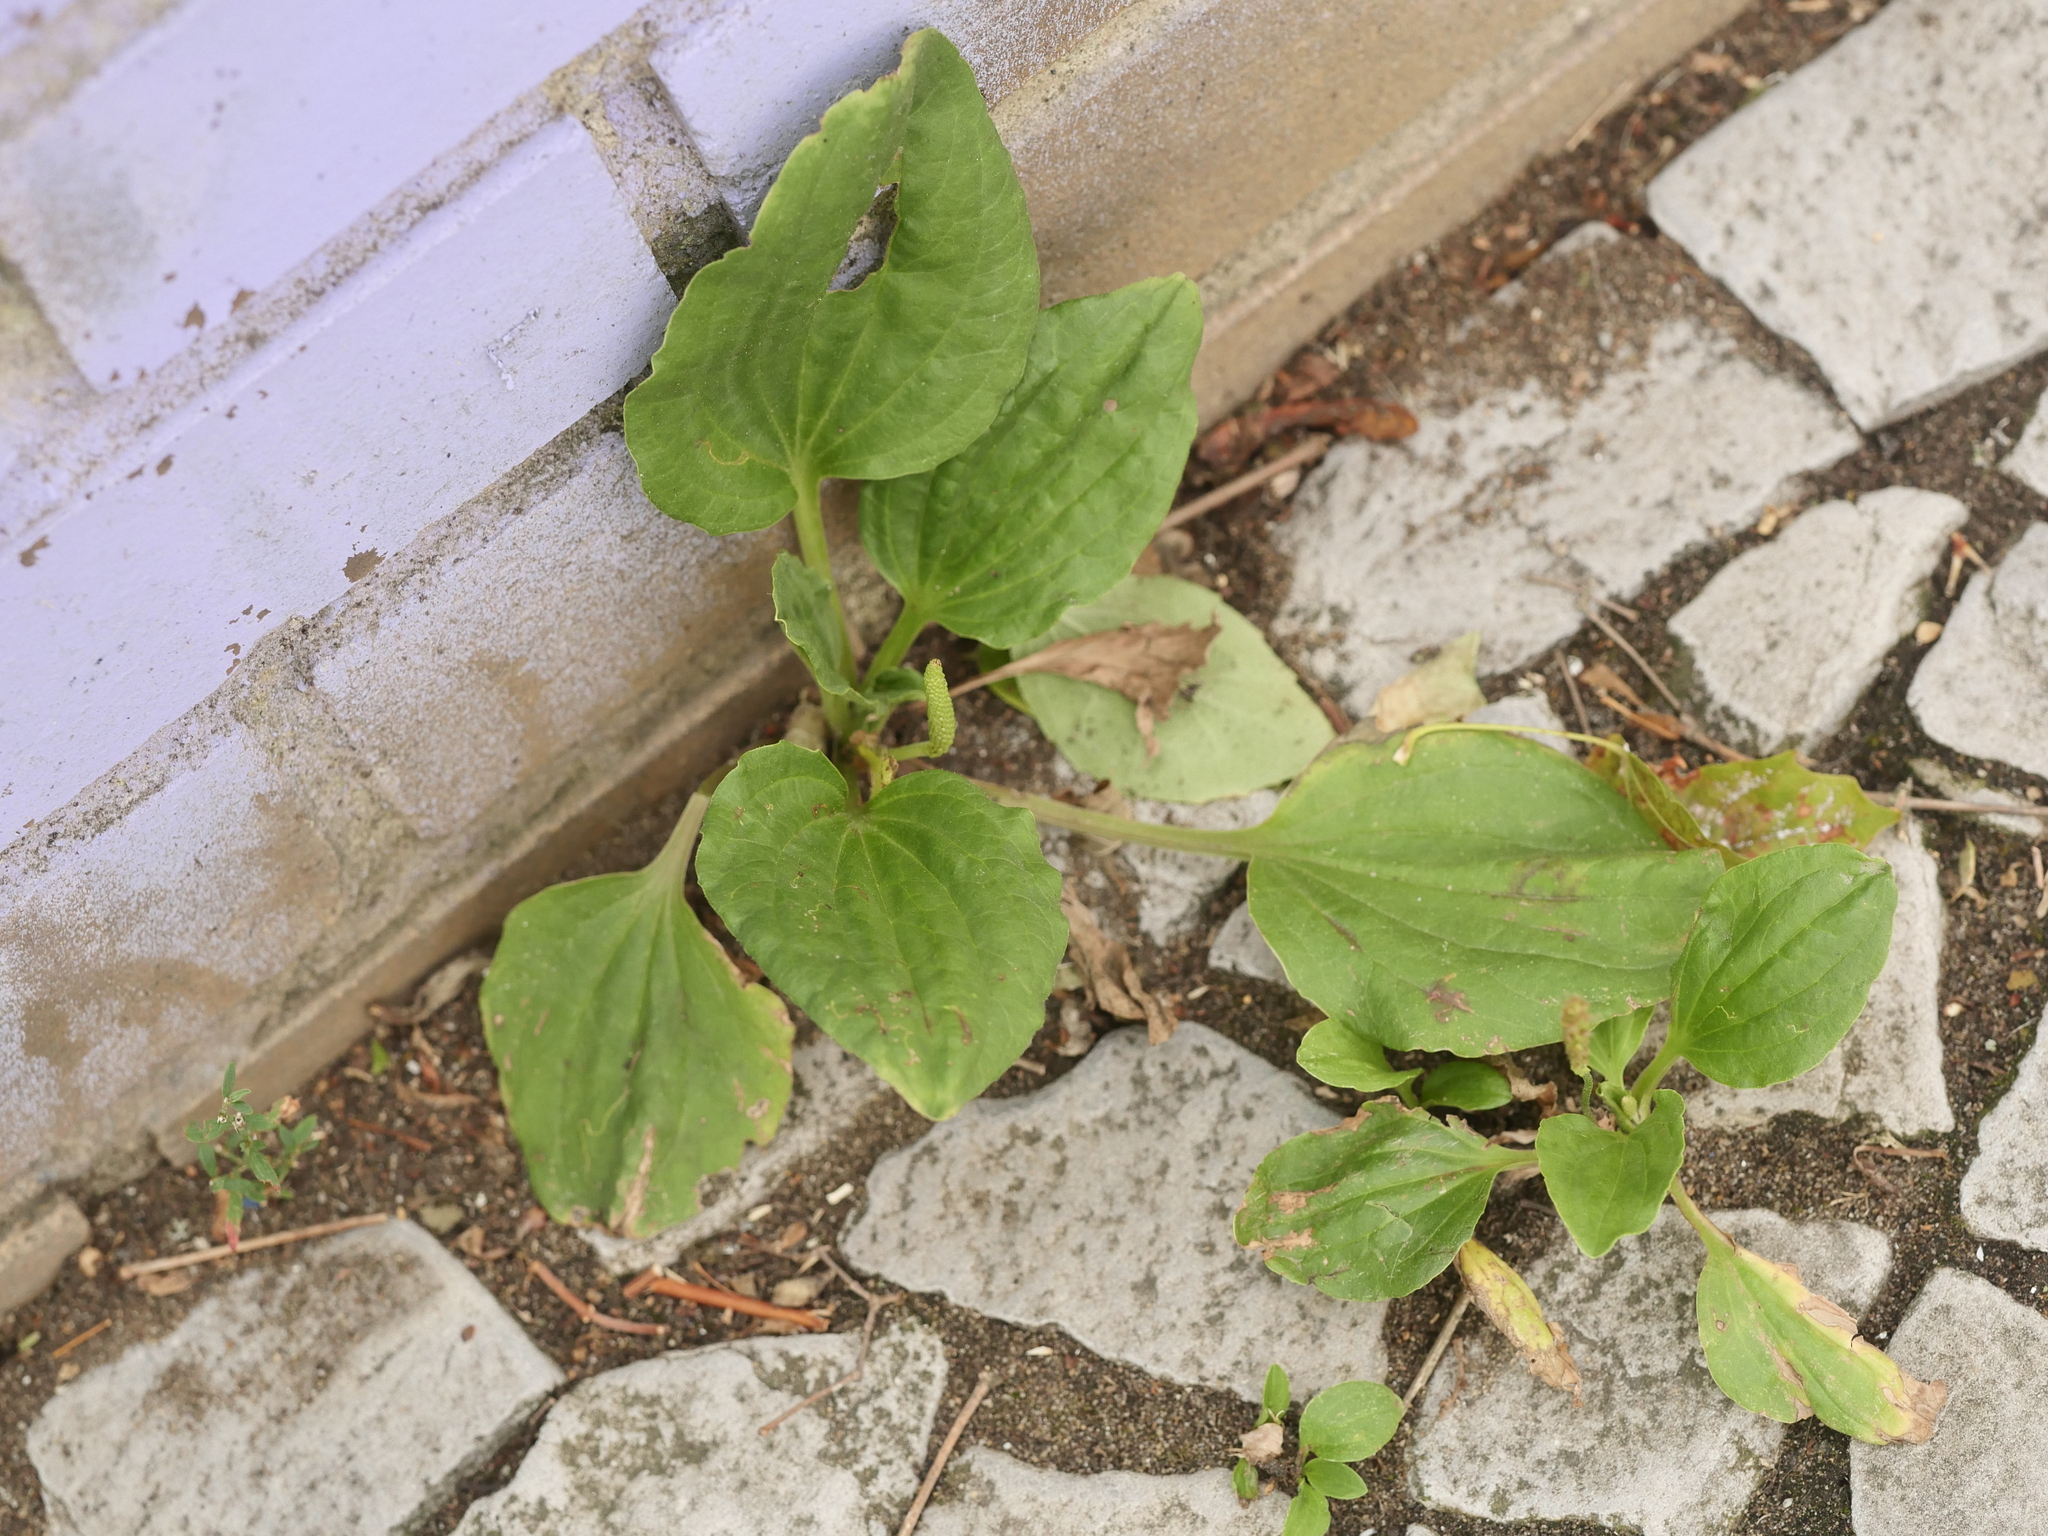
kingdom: Plantae
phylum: Tracheophyta
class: Magnoliopsida
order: Lamiales
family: Plantaginaceae
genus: Plantago
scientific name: Plantago major
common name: Common plantain
